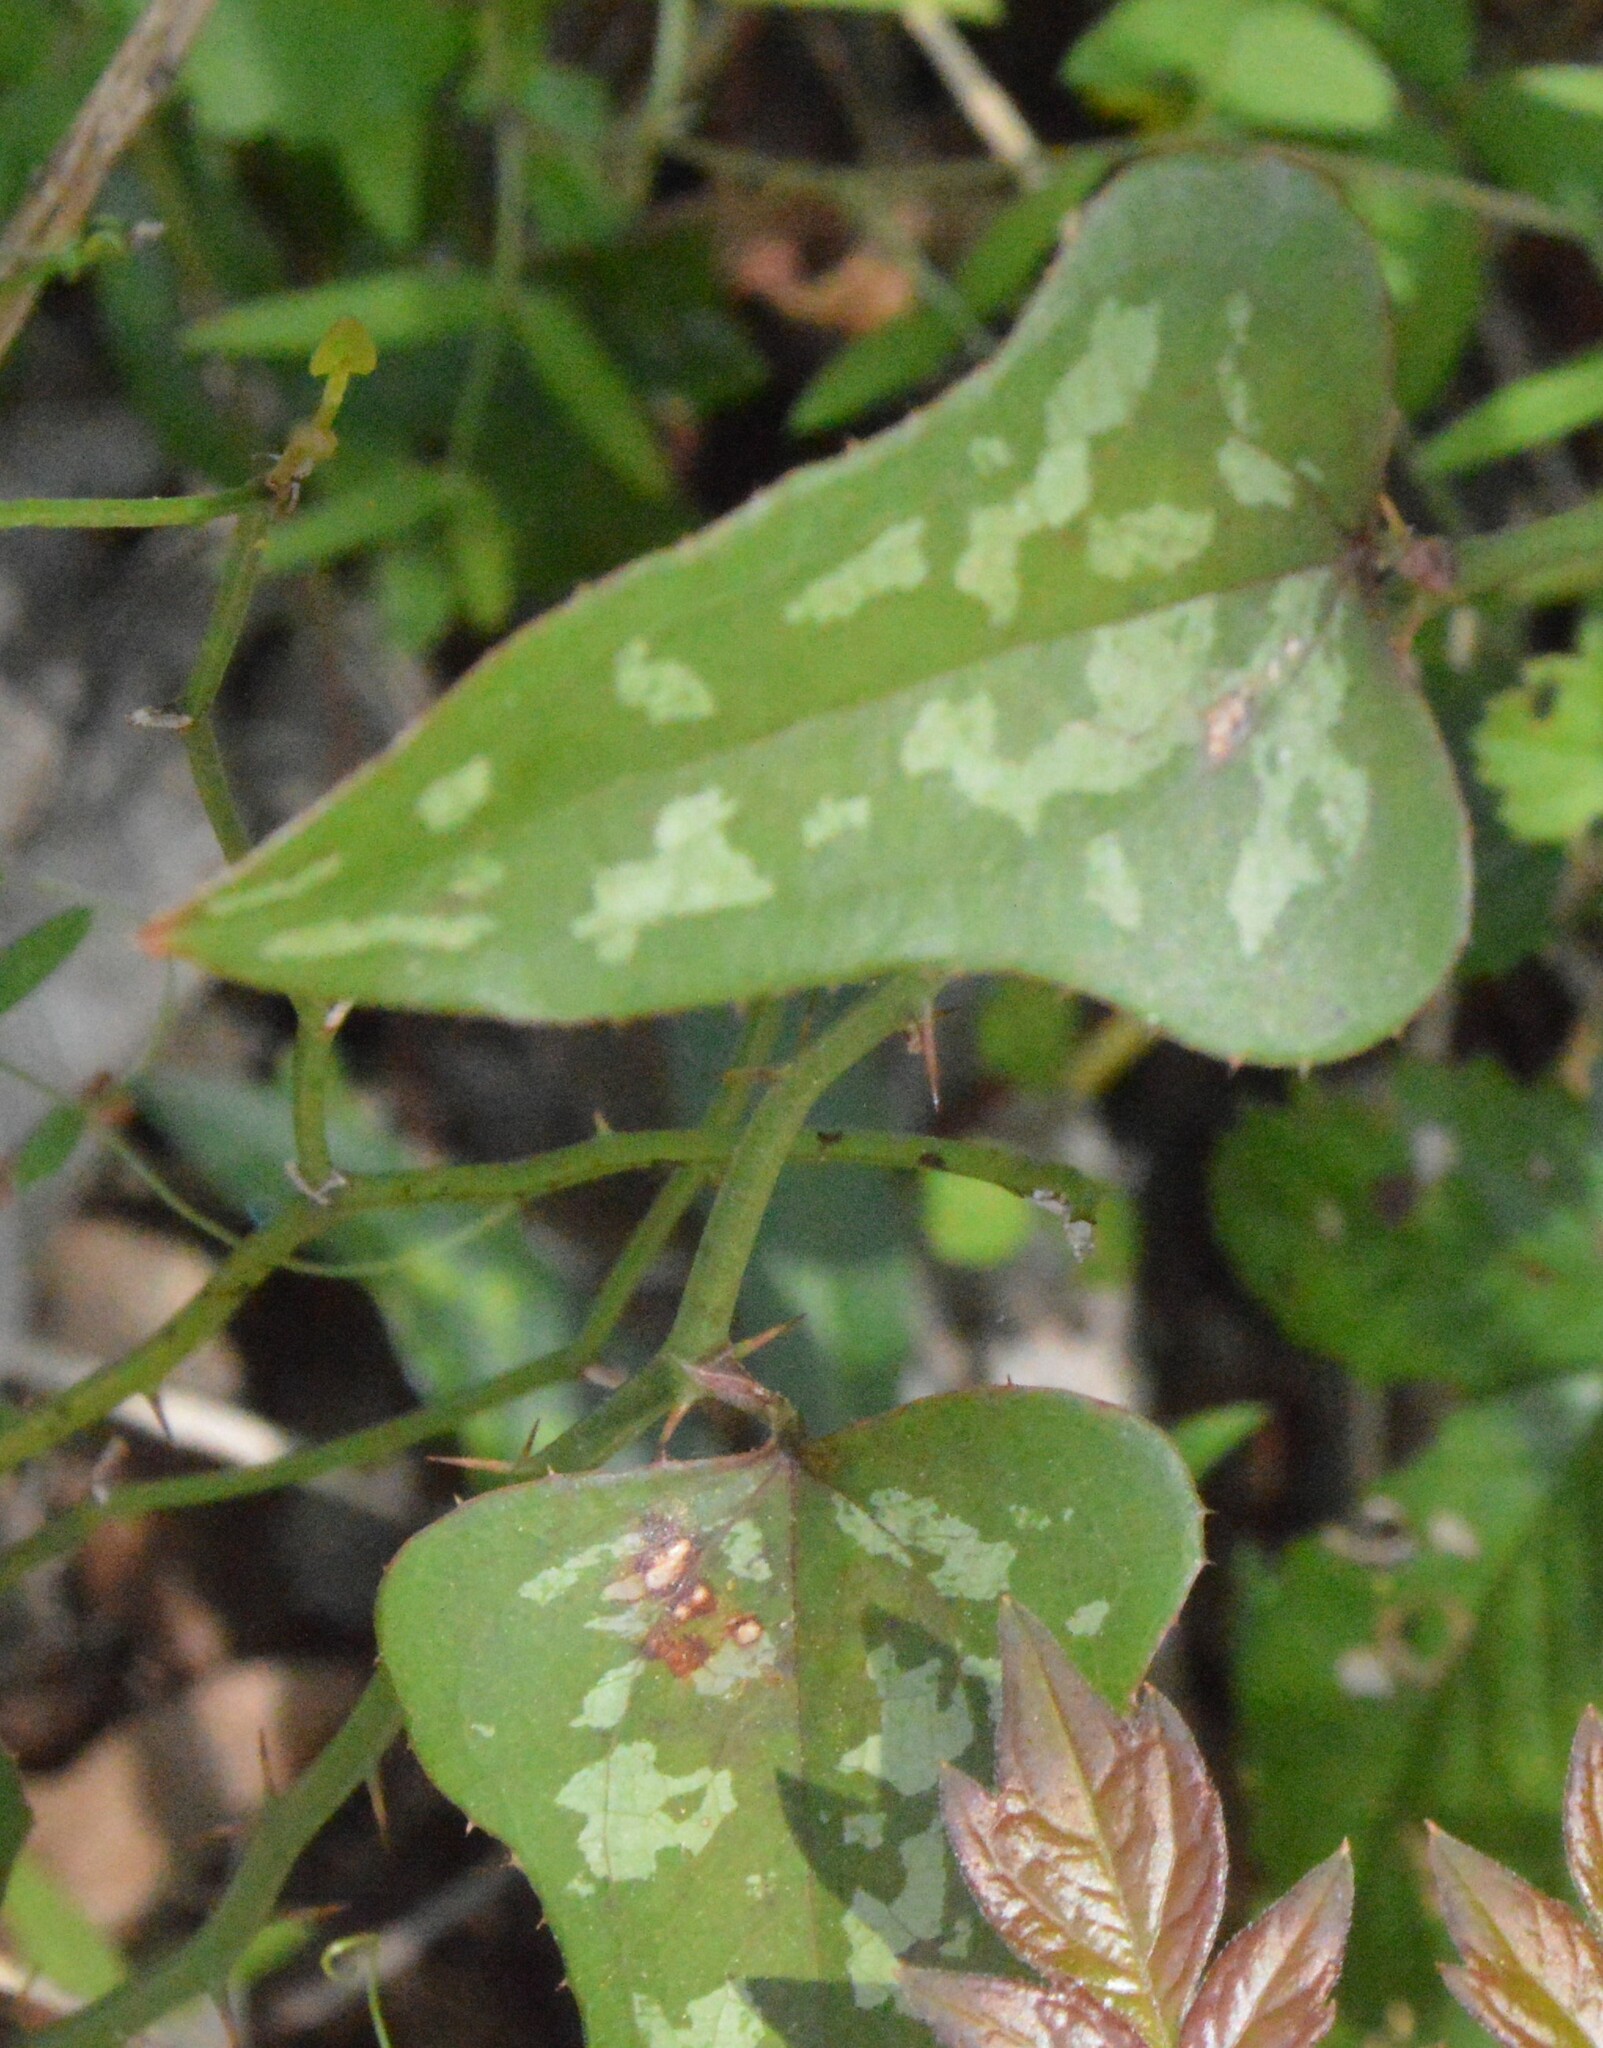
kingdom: Plantae
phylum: Tracheophyta
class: Liliopsida
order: Liliales
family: Smilacaceae
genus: Smilax
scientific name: Smilax bona-nox
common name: Catbrier
